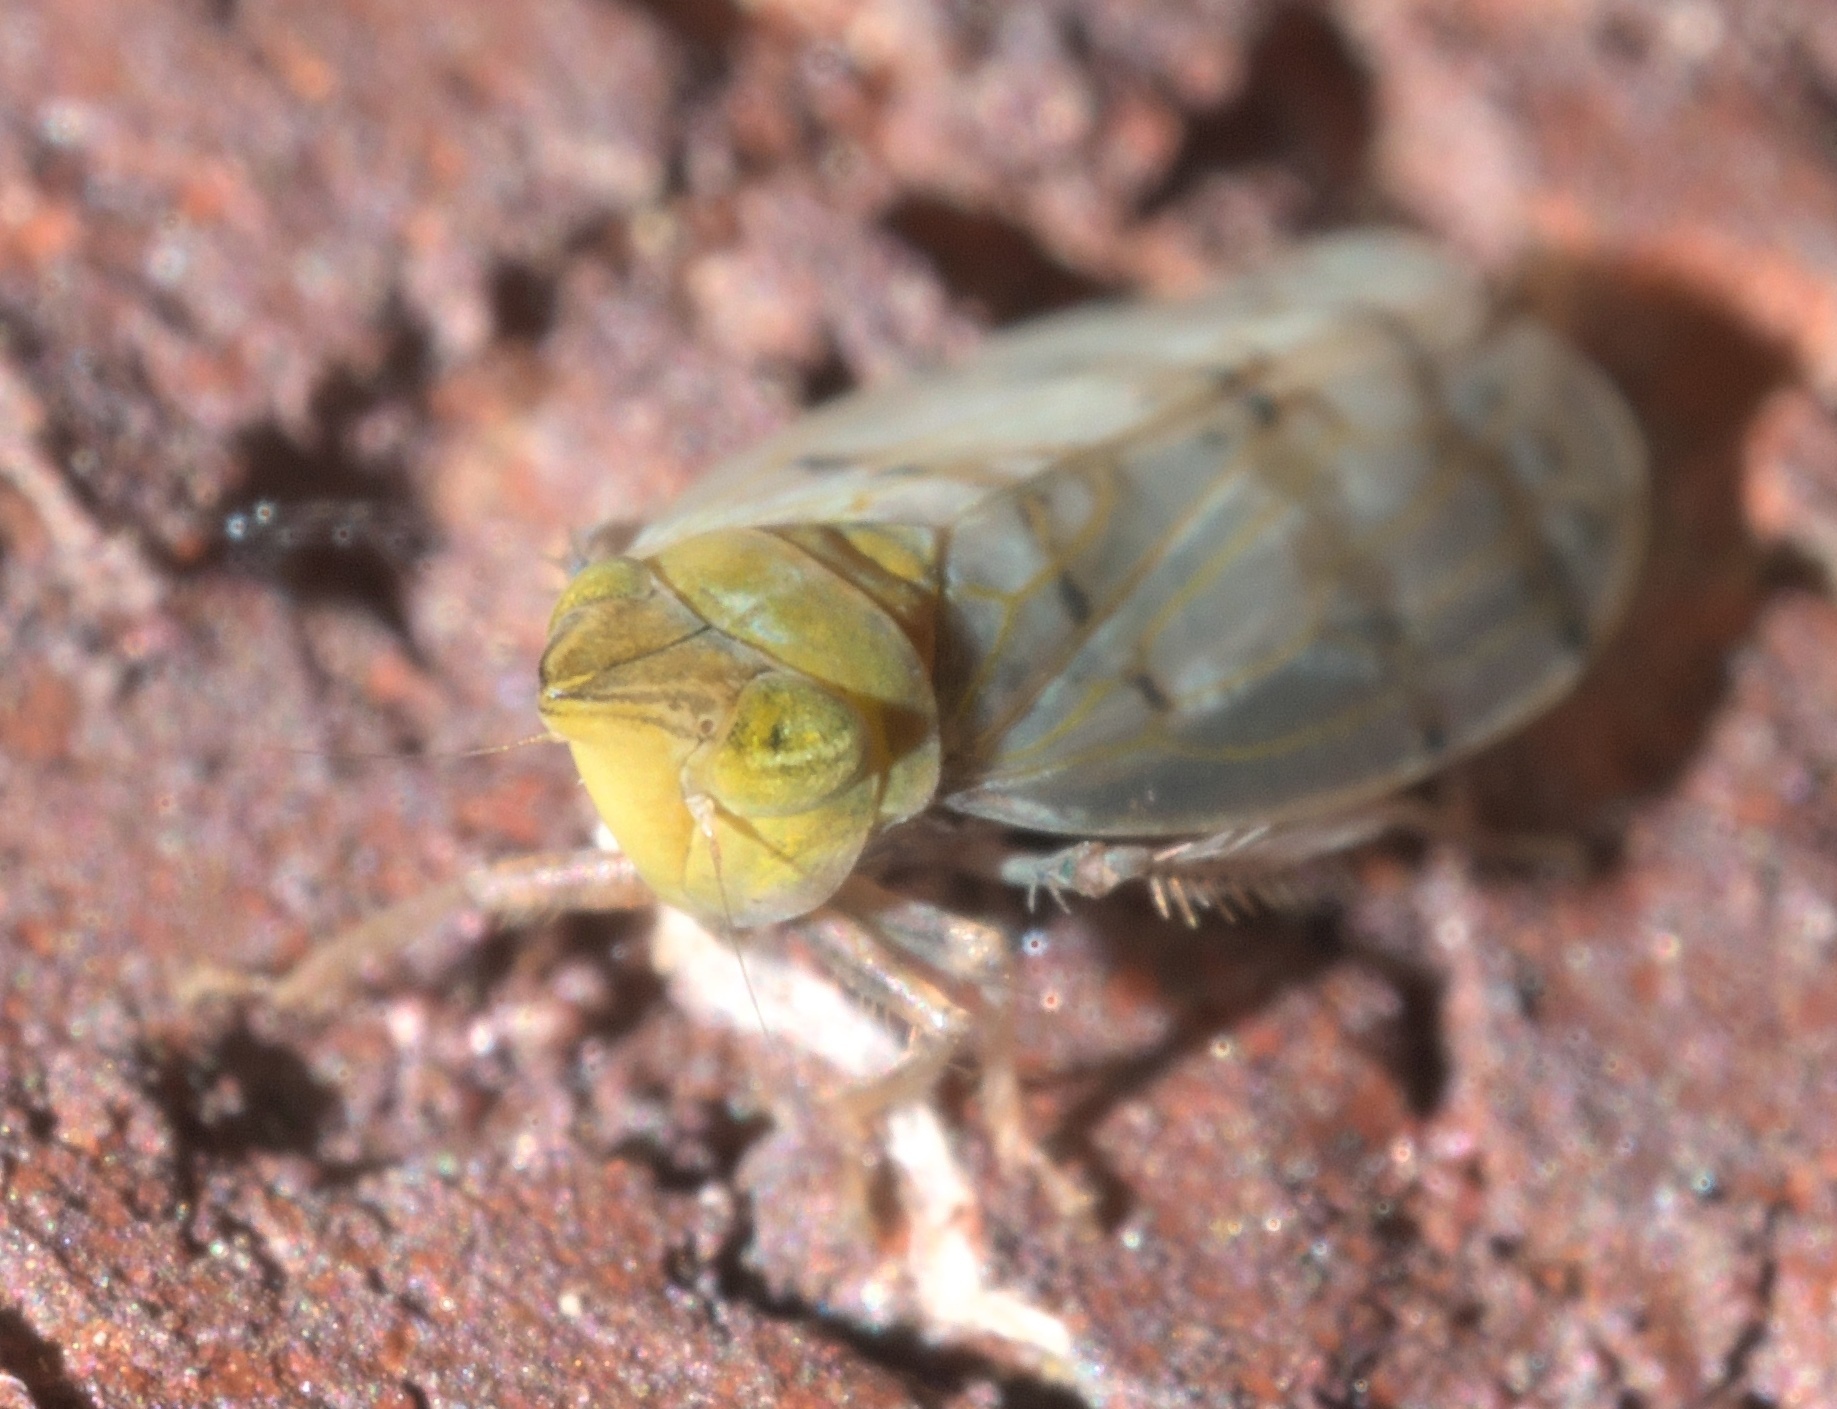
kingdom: Animalia
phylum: Arthropoda
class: Insecta
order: Hemiptera
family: Cicadellidae
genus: Japananus
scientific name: Japananus hyalinus
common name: The japanese maple leafhopper
